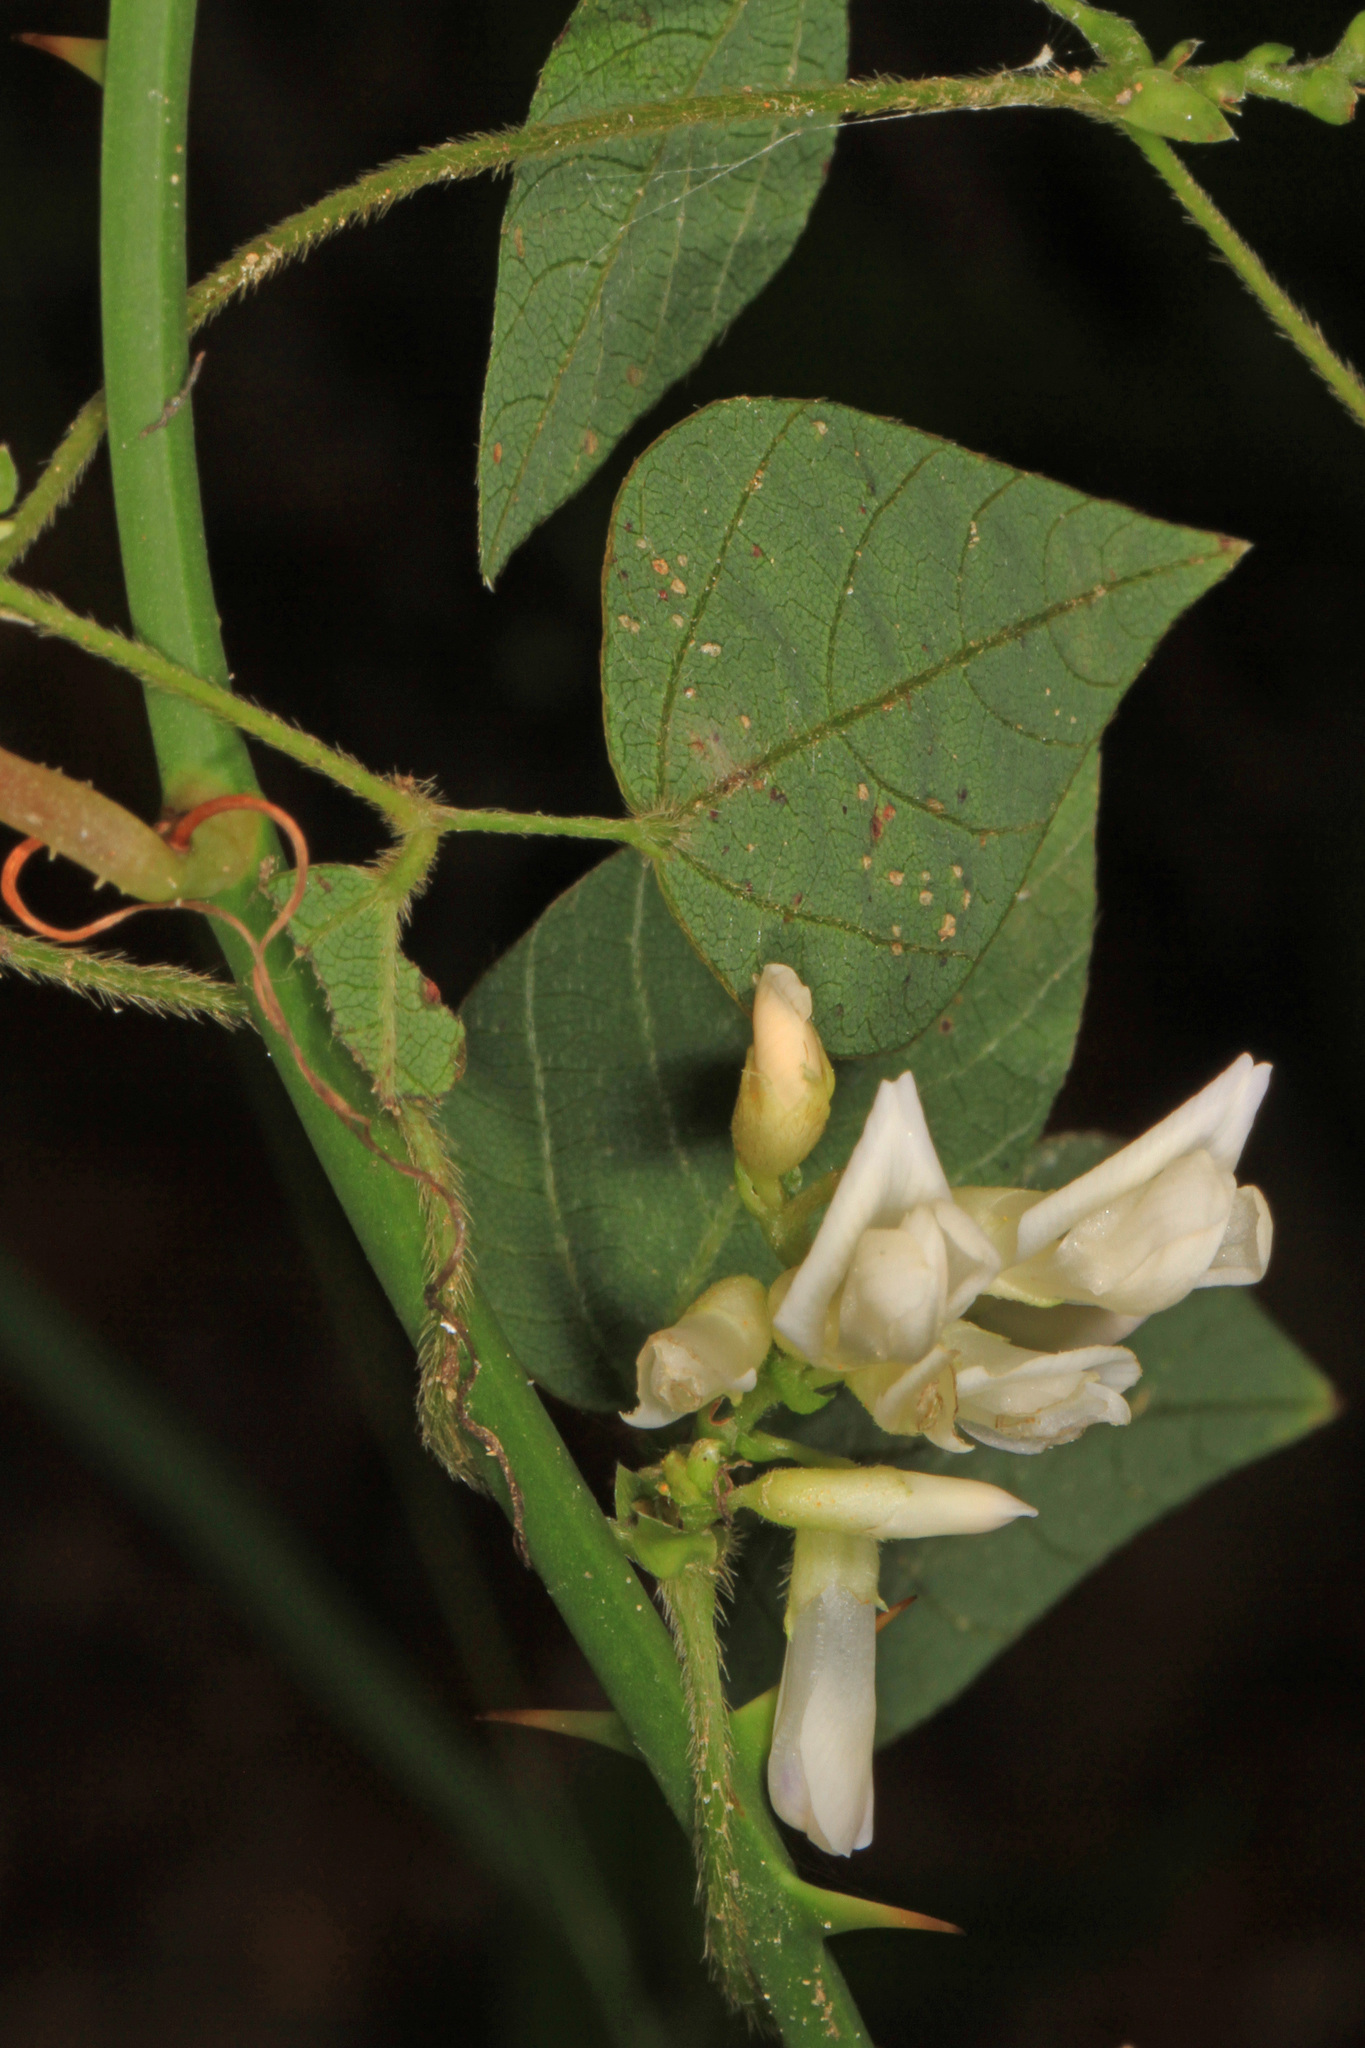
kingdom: Plantae
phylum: Tracheophyta
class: Magnoliopsida
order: Fabales
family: Fabaceae
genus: Amphicarpaea
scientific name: Amphicarpaea bracteata
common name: American hog peanut
